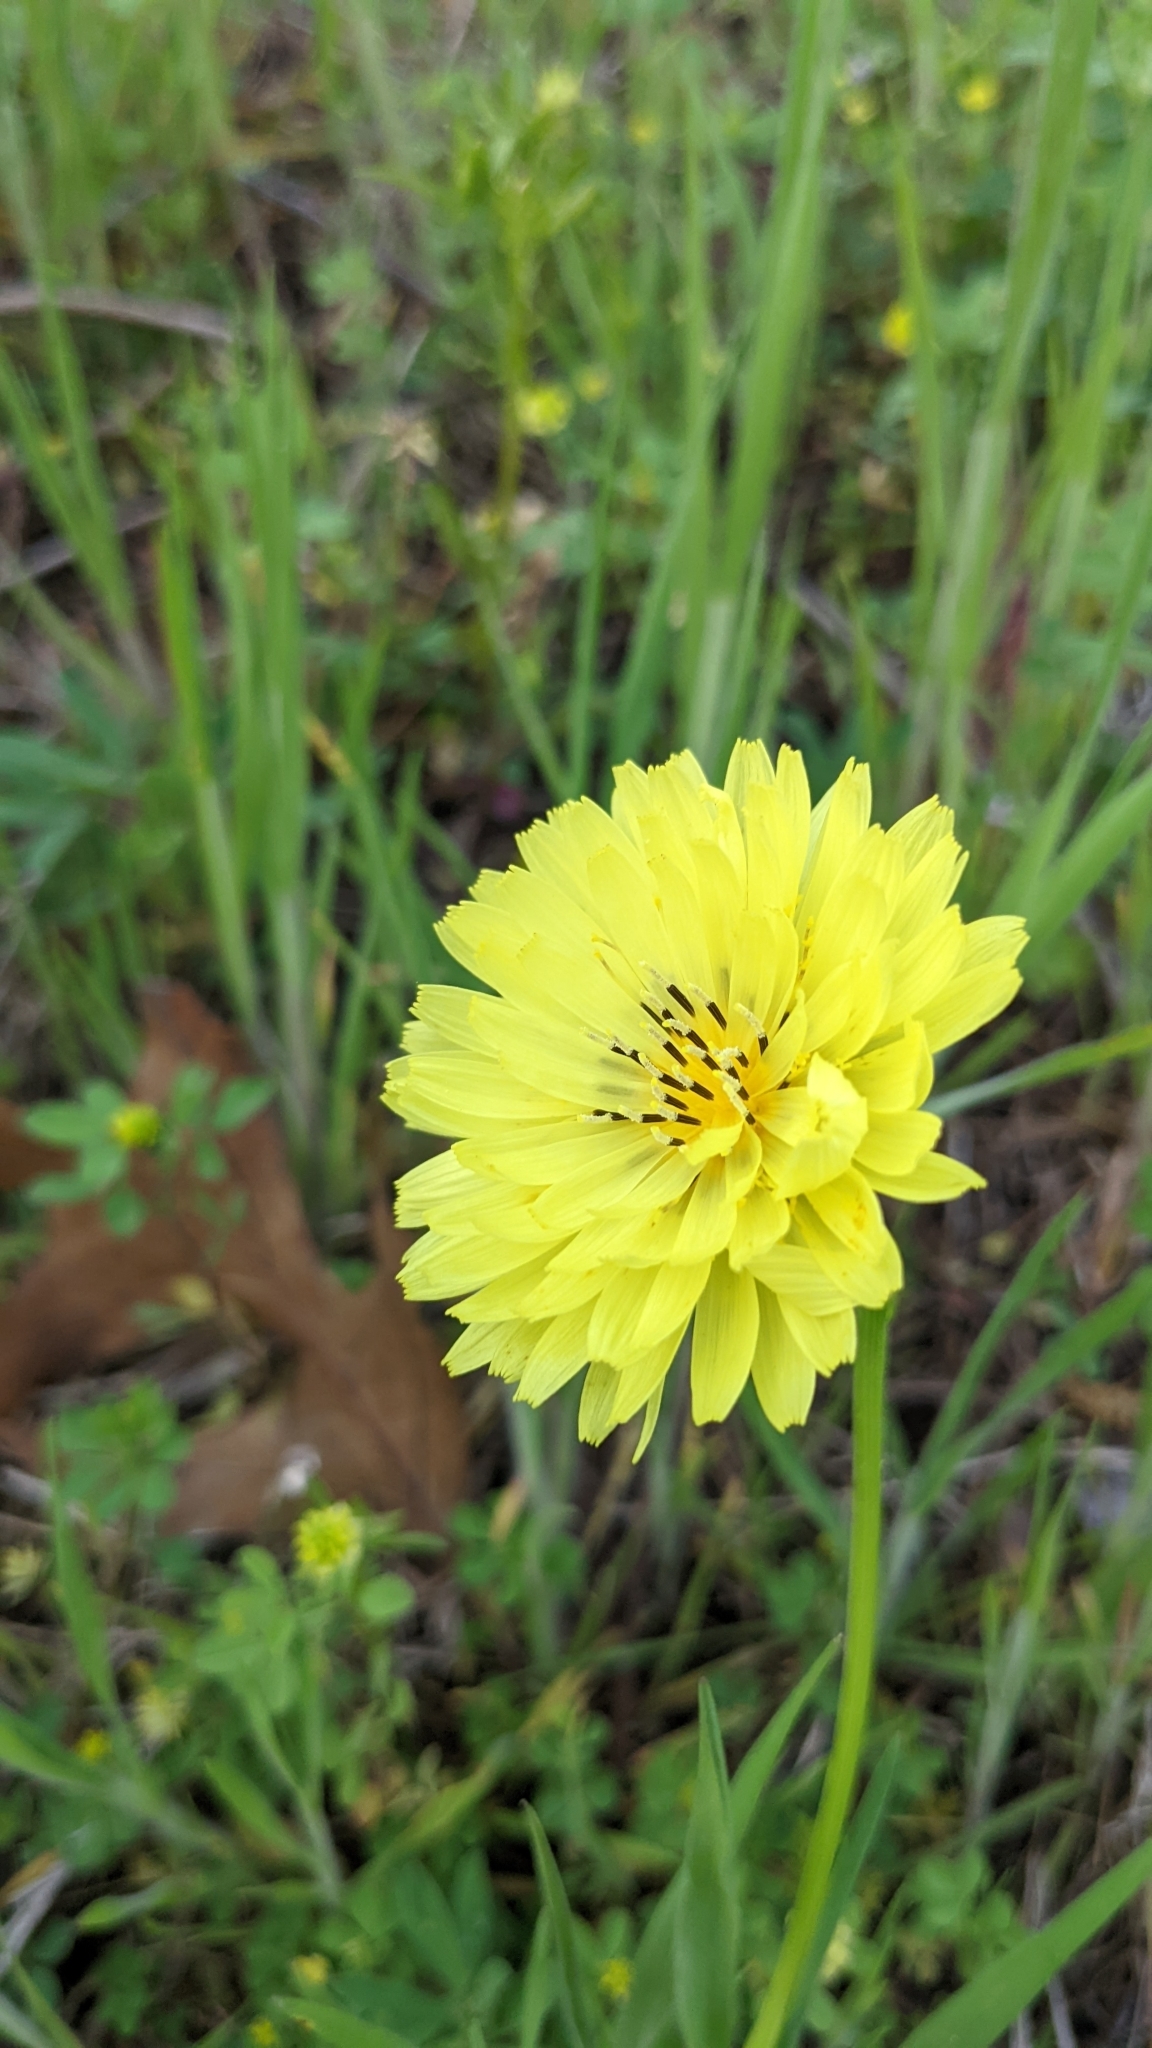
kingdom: Plantae
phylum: Tracheophyta
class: Magnoliopsida
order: Asterales
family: Asteraceae
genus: Pyrrhopappus
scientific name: Pyrrhopappus pauciflorus
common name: Texas false dandelion
